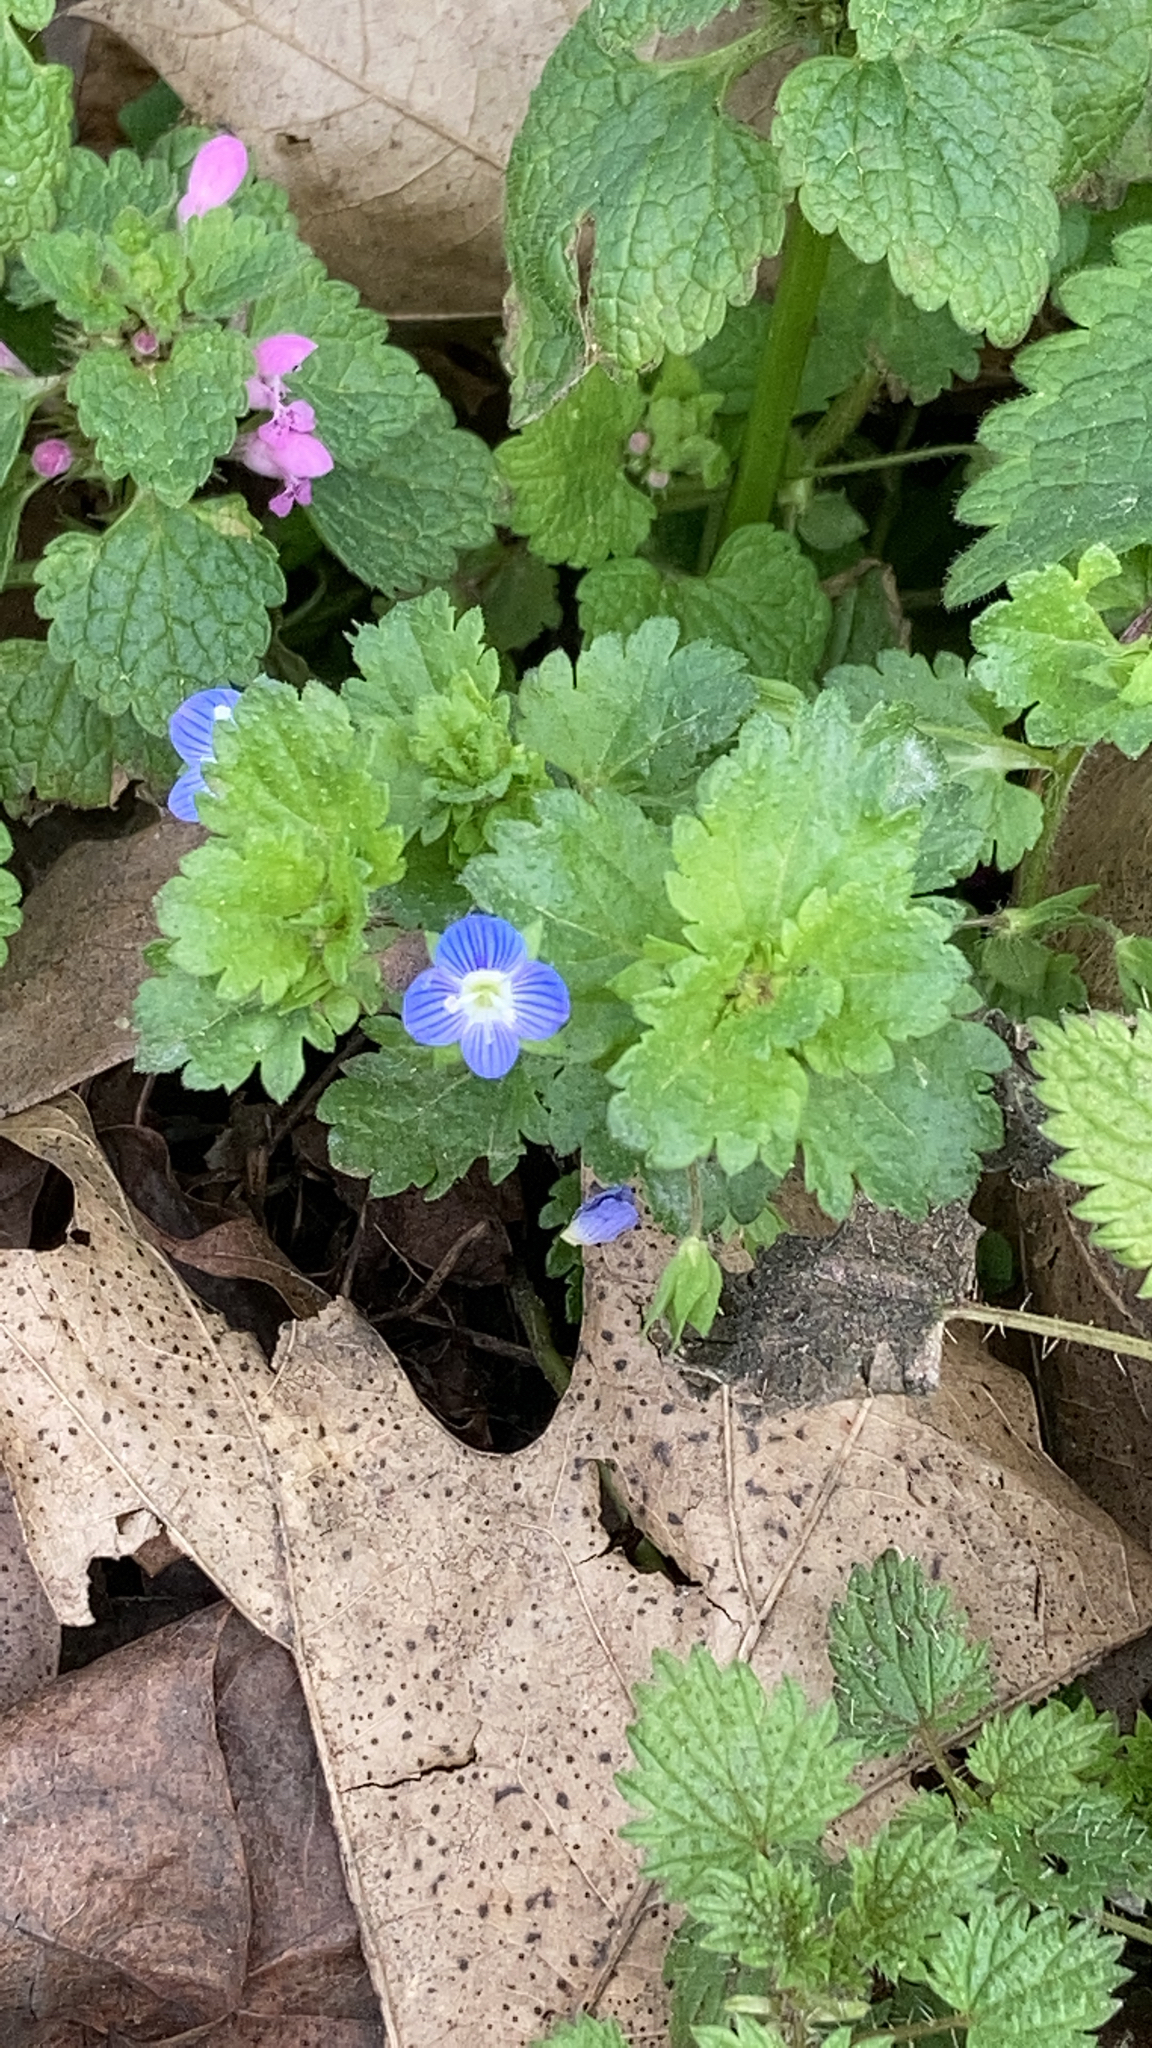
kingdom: Plantae
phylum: Tracheophyta
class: Magnoliopsida
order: Lamiales
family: Plantaginaceae
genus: Veronica
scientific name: Veronica persica
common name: Common field-speedwell
